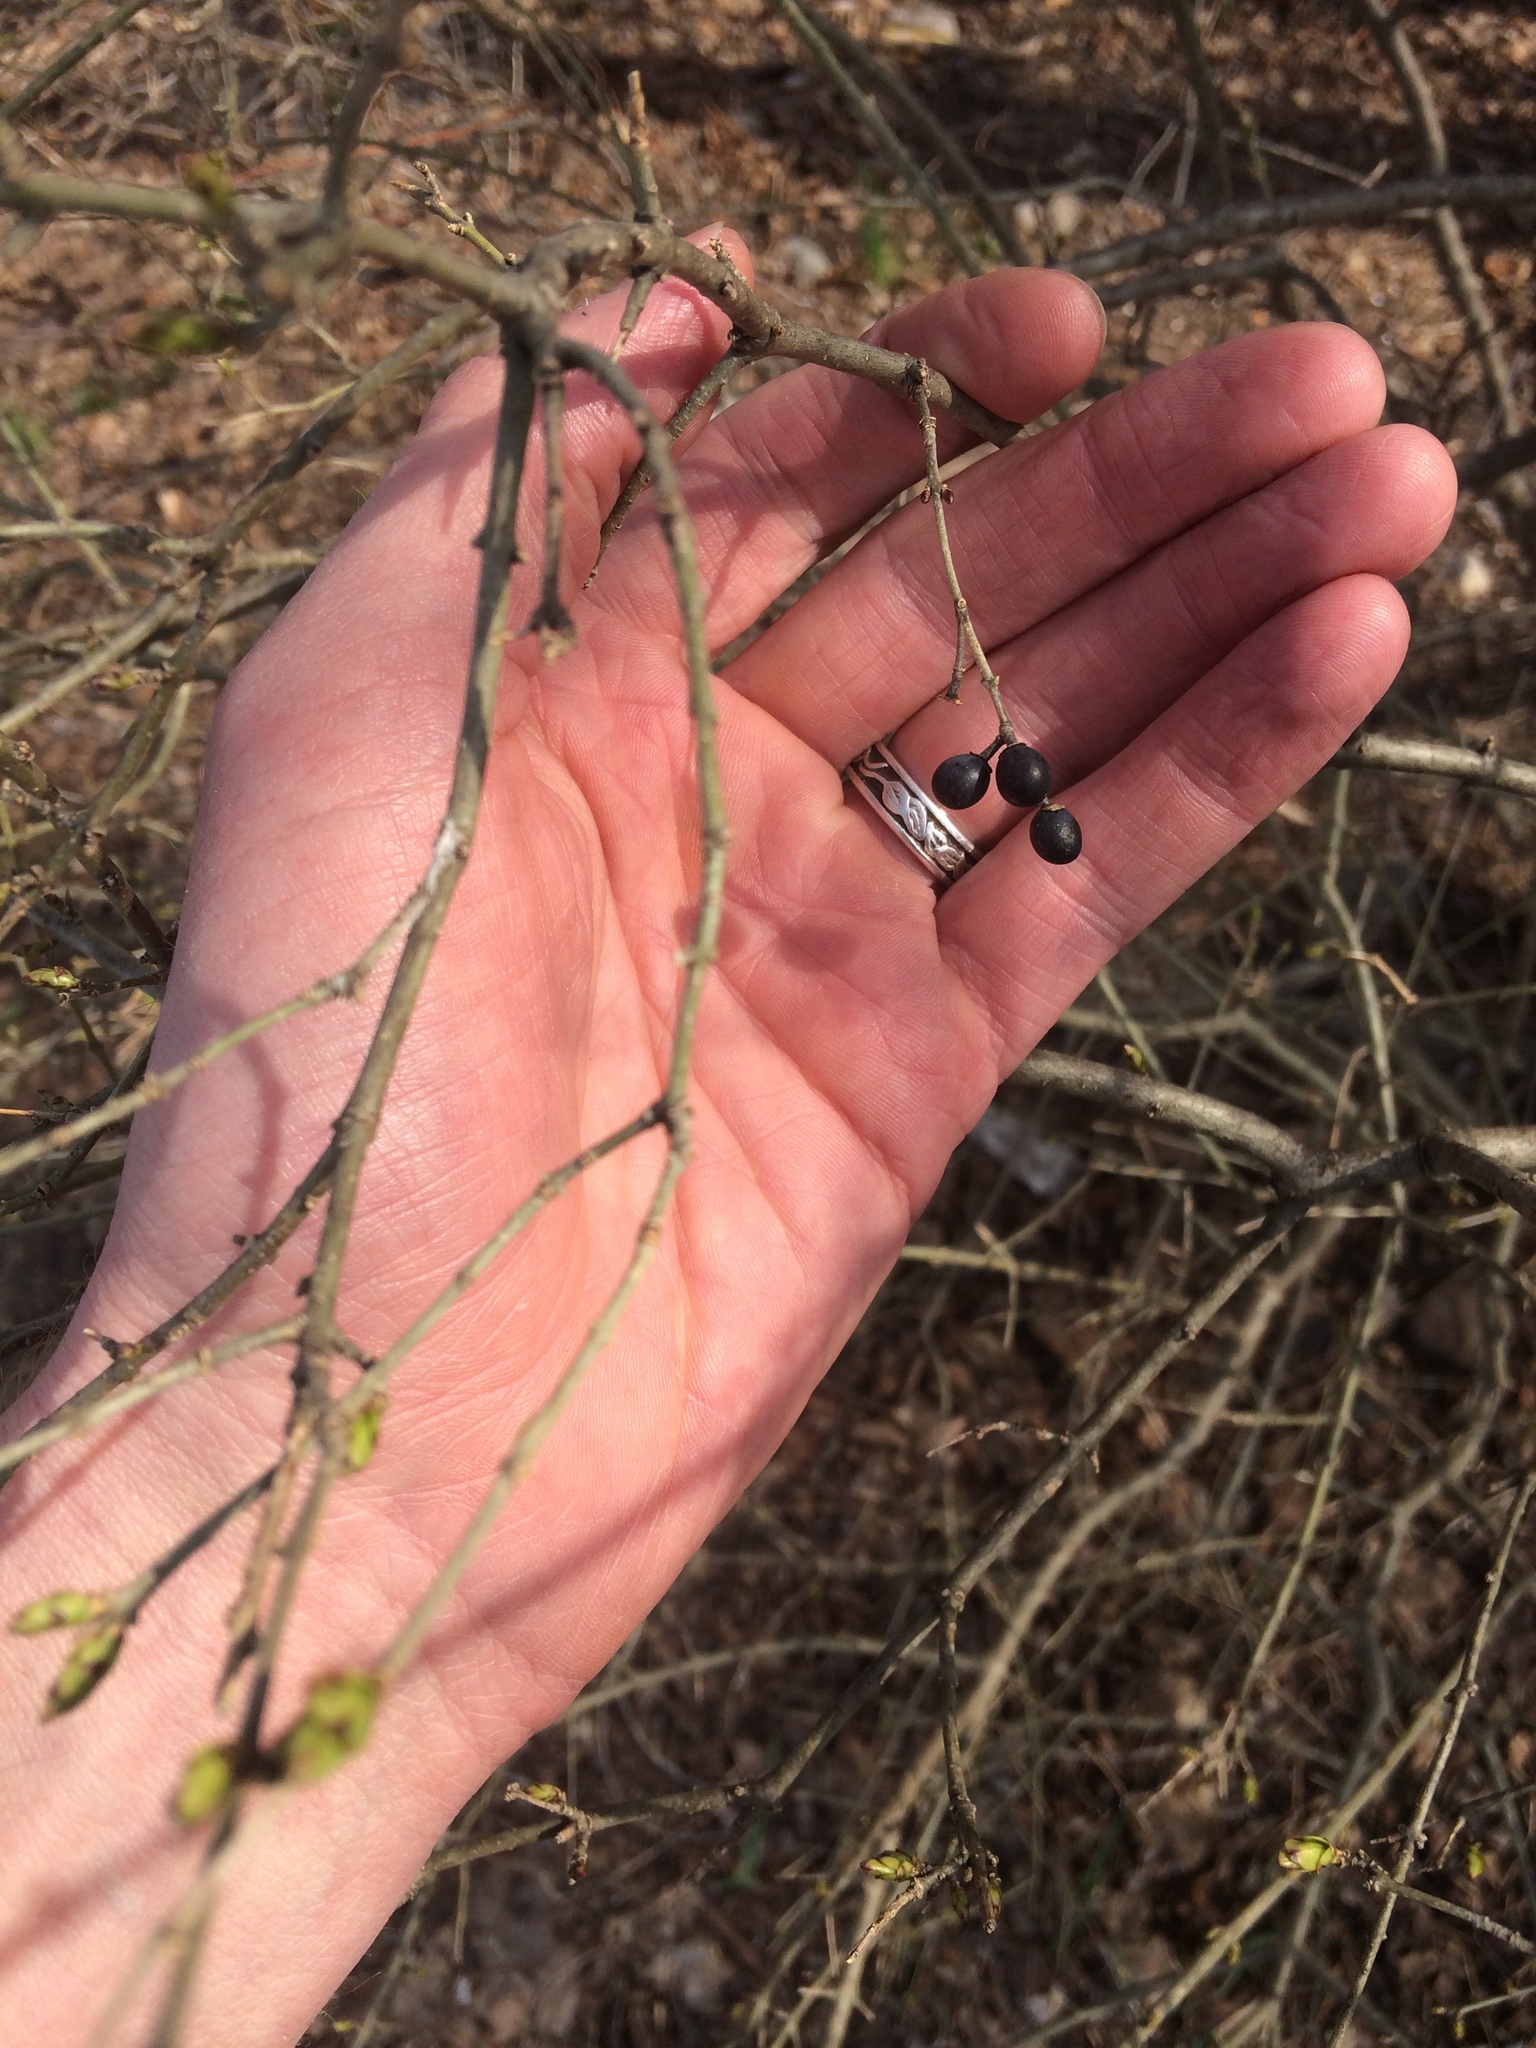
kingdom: Plantae
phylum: Tracheophyta
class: Magnoliopsida
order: Lamiales
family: Oleaceae
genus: Ligustrum
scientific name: Ligustrum
